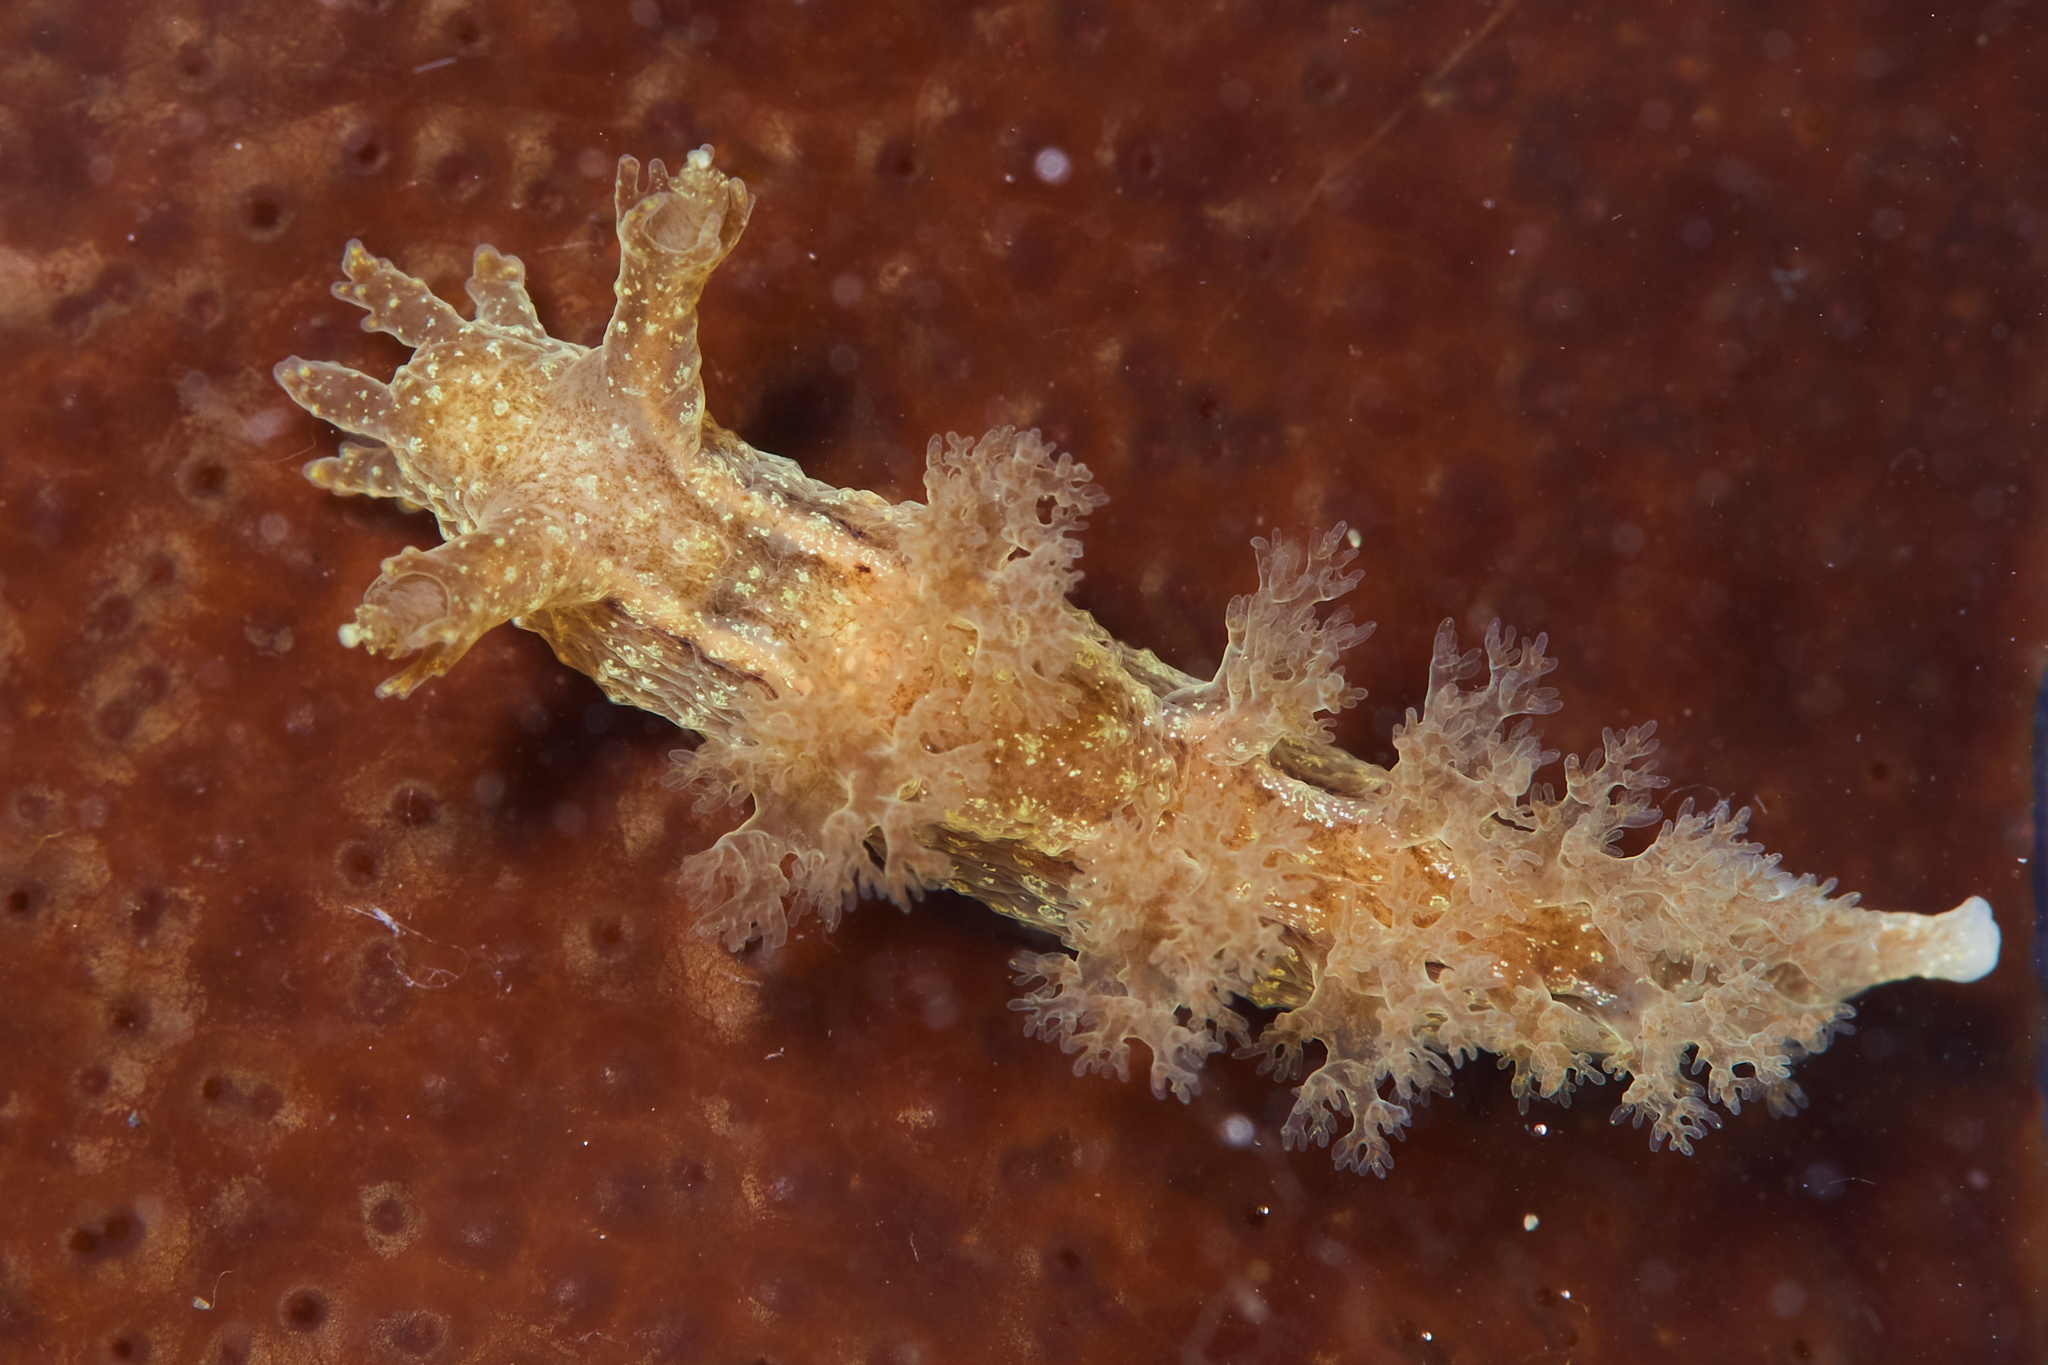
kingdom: Animalia
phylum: Mollusca
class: Gastropoda
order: Nudibranchia
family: Dendronotidae
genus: Dendronotus
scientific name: Dendronotus subramosus
